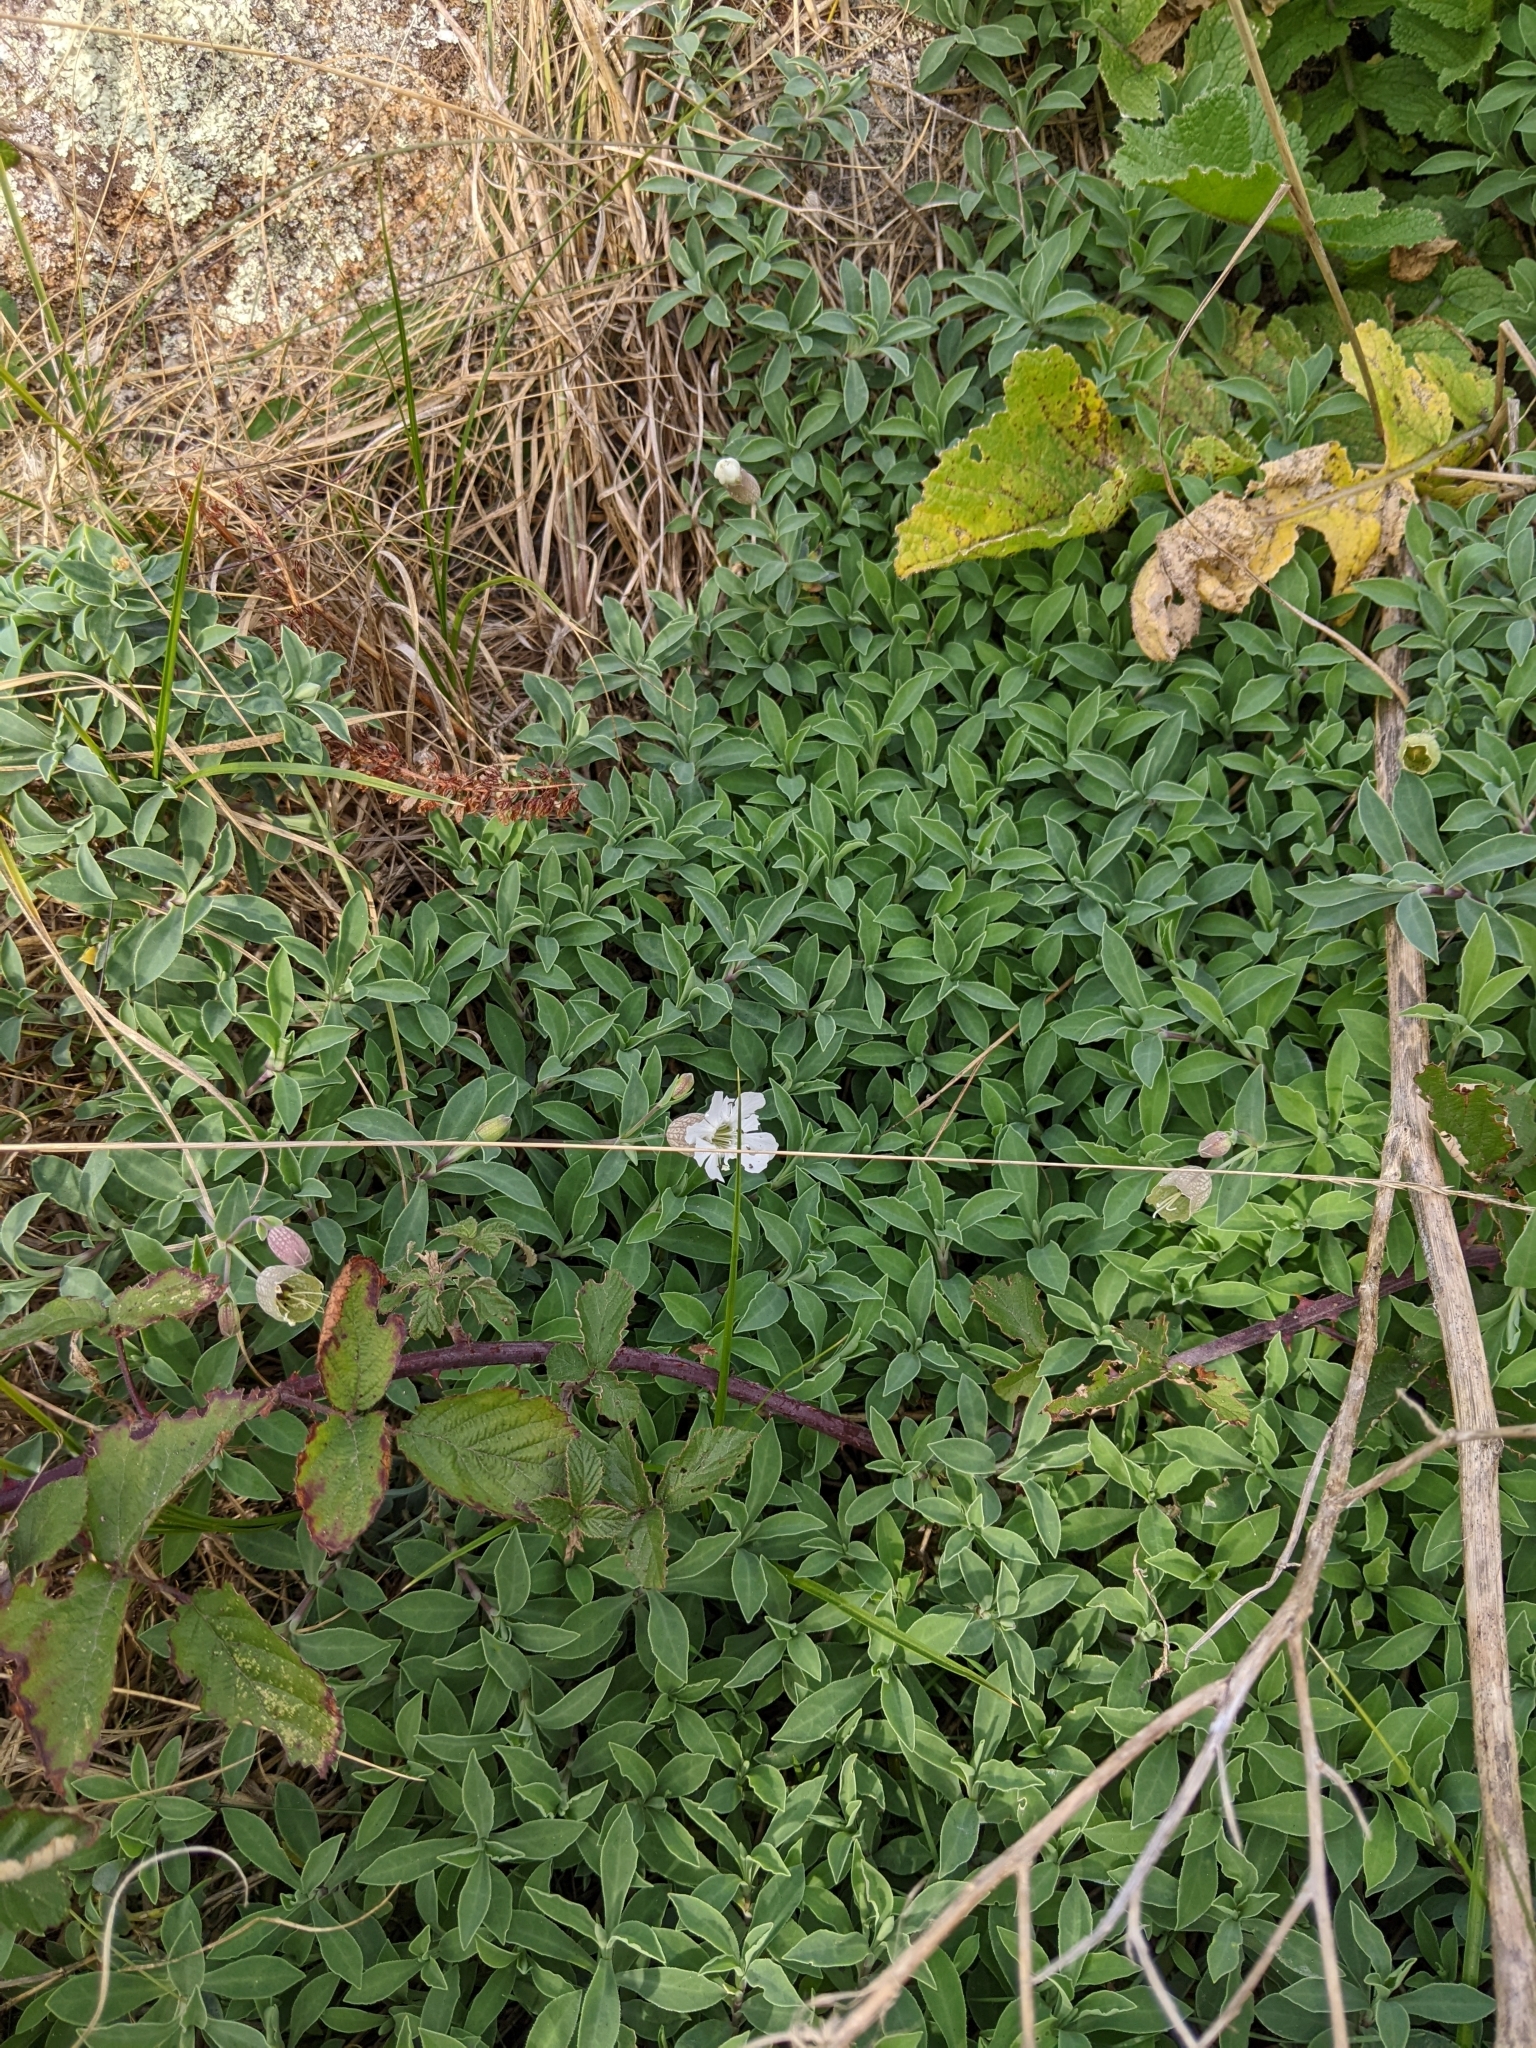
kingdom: Plantae
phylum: Tracheophyta
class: Magnoliopsida
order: Caryophyllales
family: Caryophyllaceae
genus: Silene
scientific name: Silene uniflora
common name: Sea campion
